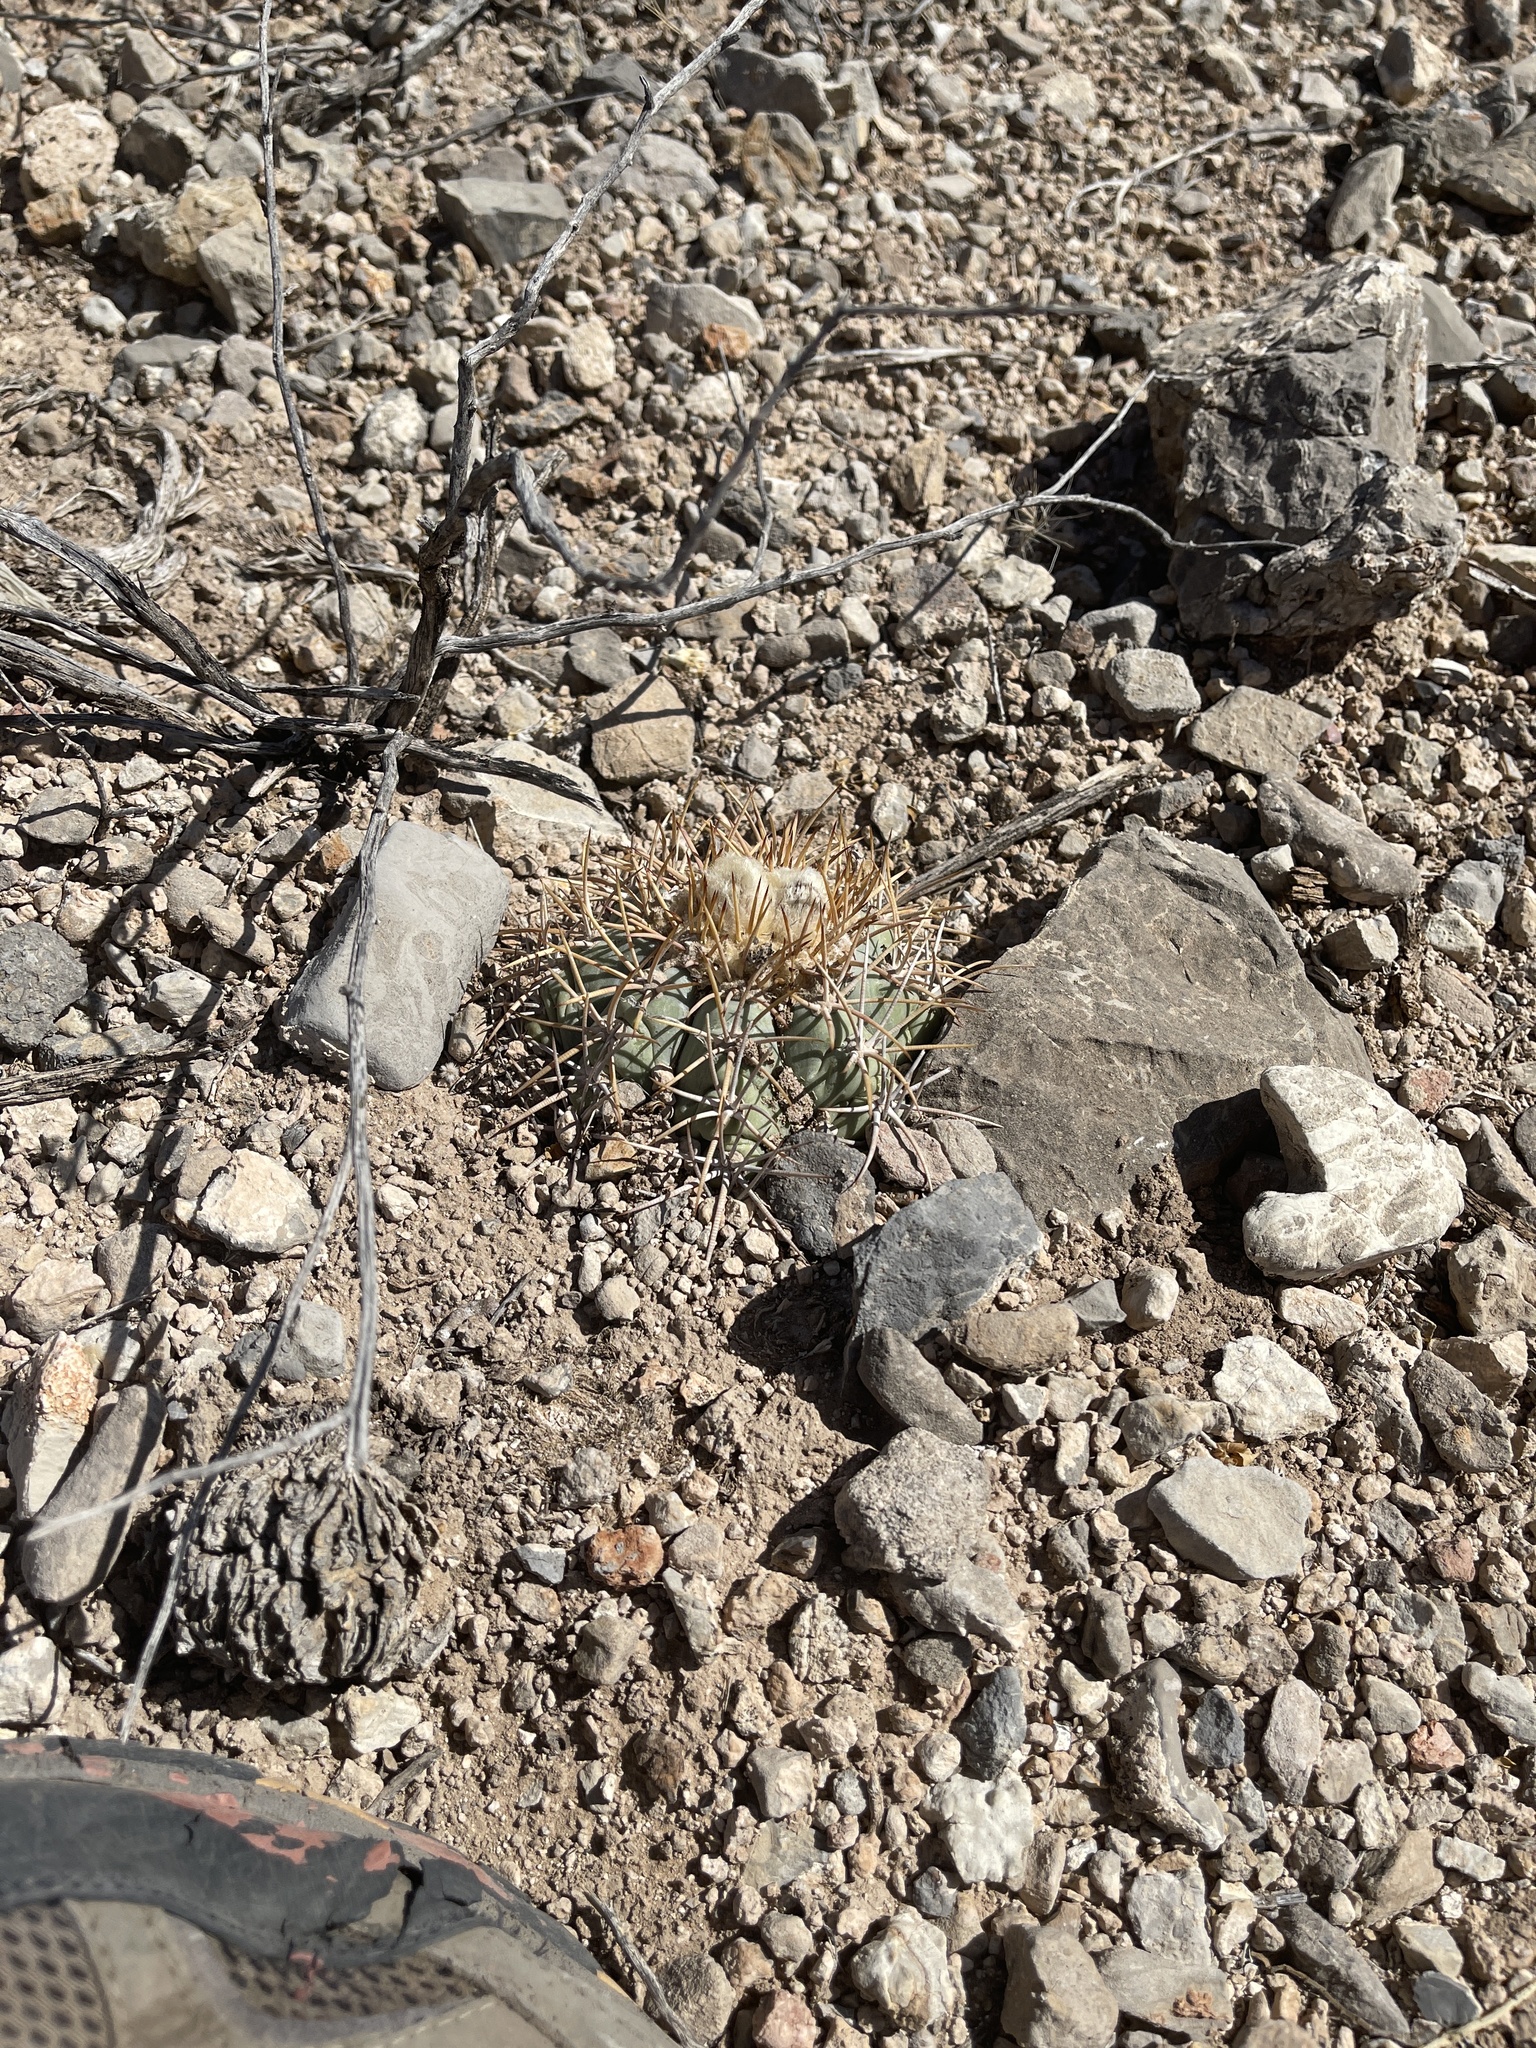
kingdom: Plantae
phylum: Tracheophyta
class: Magnoliopsida
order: Caryophyllales
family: Cactaceae
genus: Echinocactus
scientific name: Echinocactus horizonthalonius
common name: Devilshead
